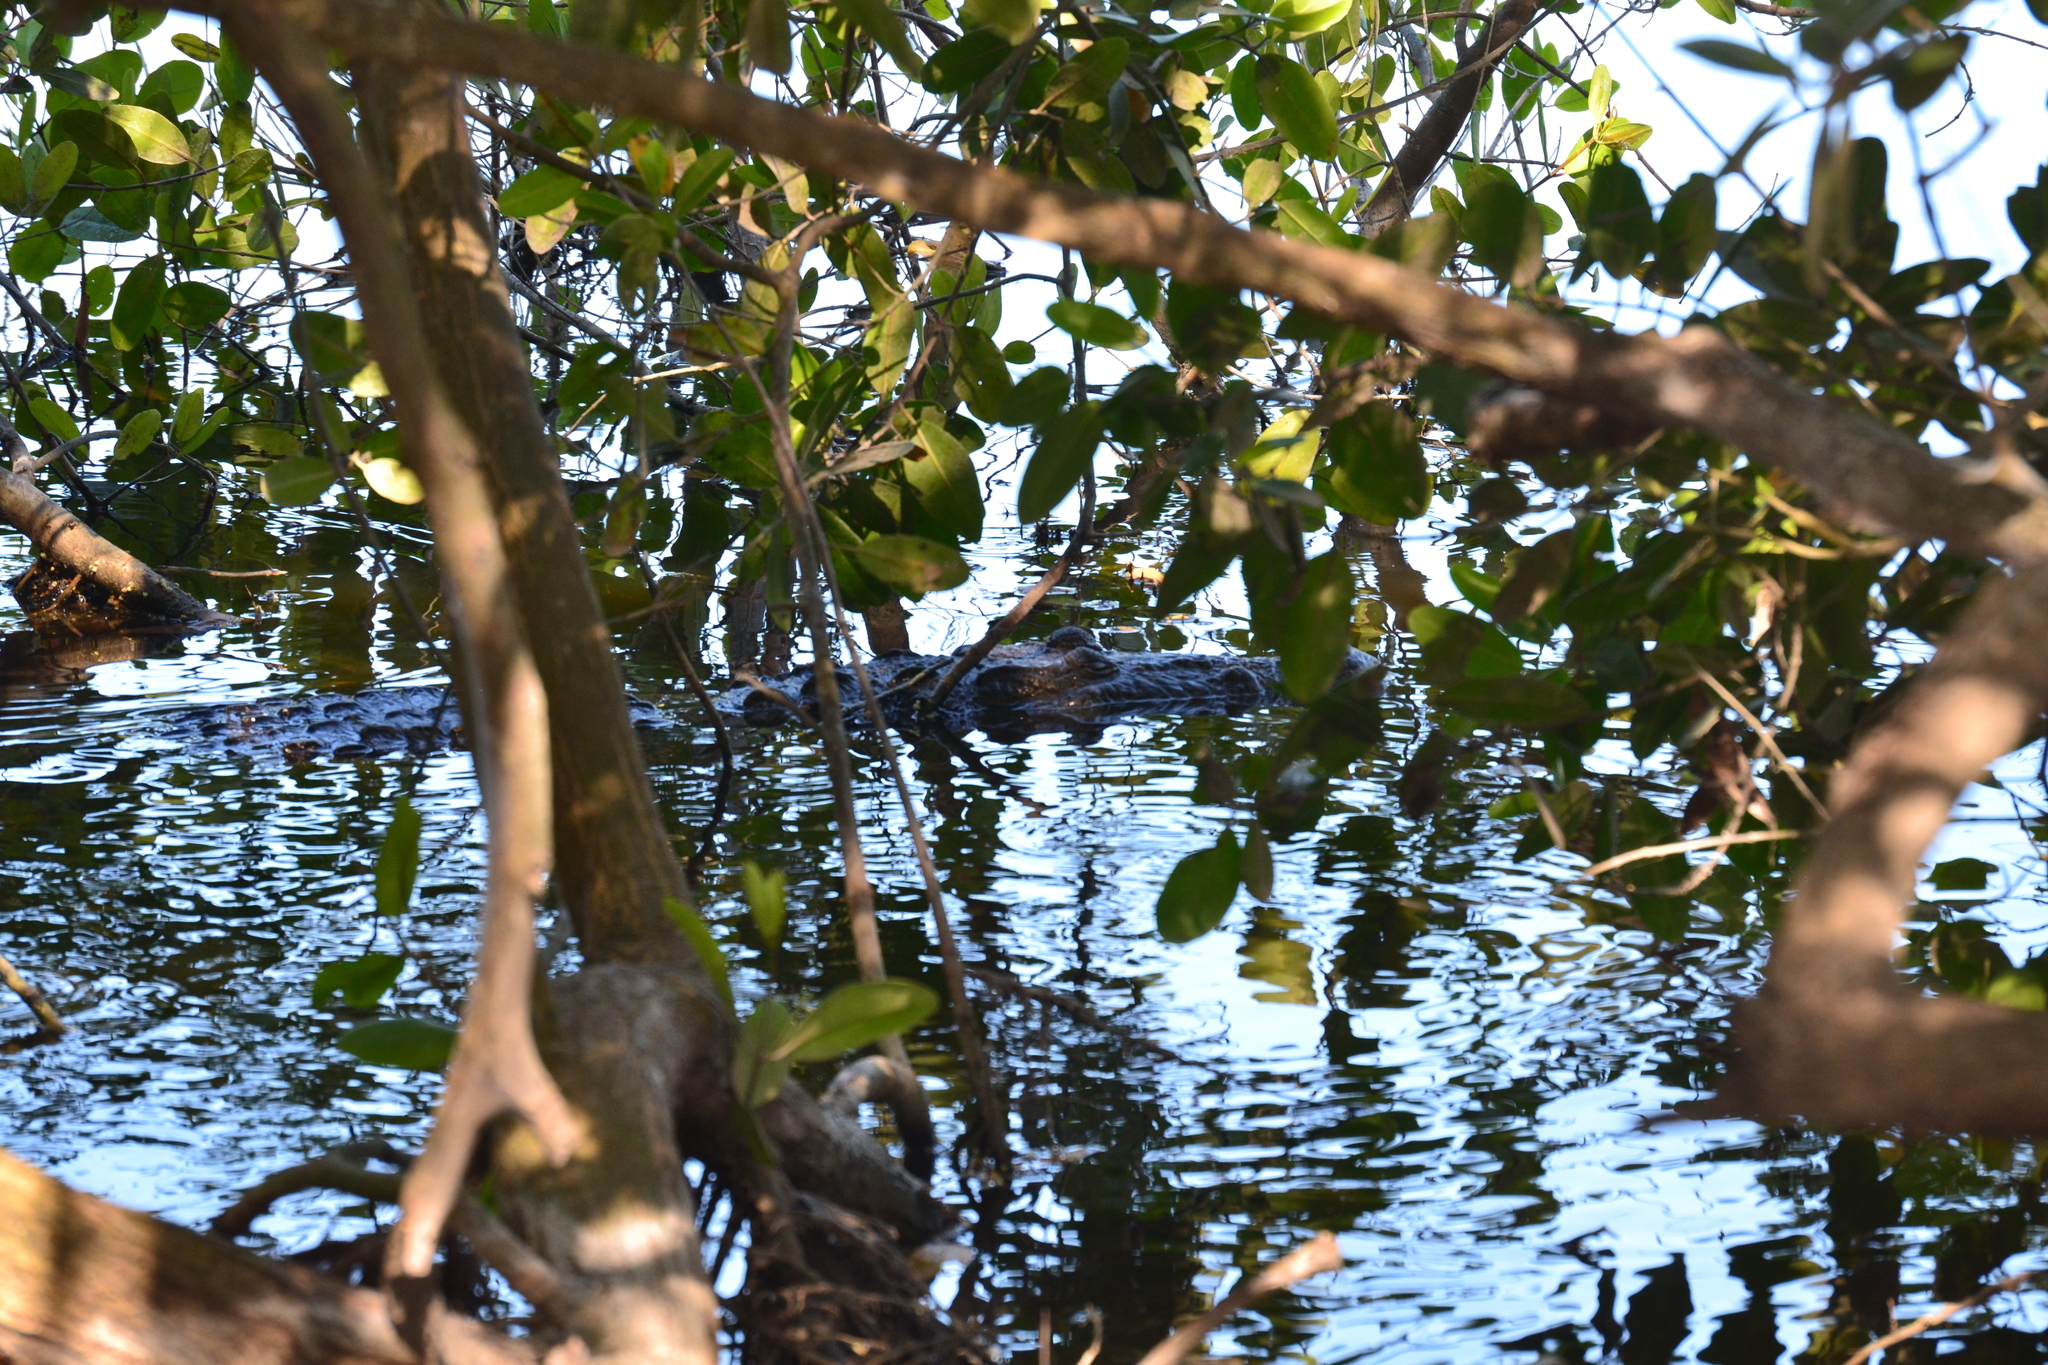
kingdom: Animalia
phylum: Chordata
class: Crocodylia
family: Crocodylidae
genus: Crocodylus
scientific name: Crocodylus moreletii
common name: Morelet's crocodile
